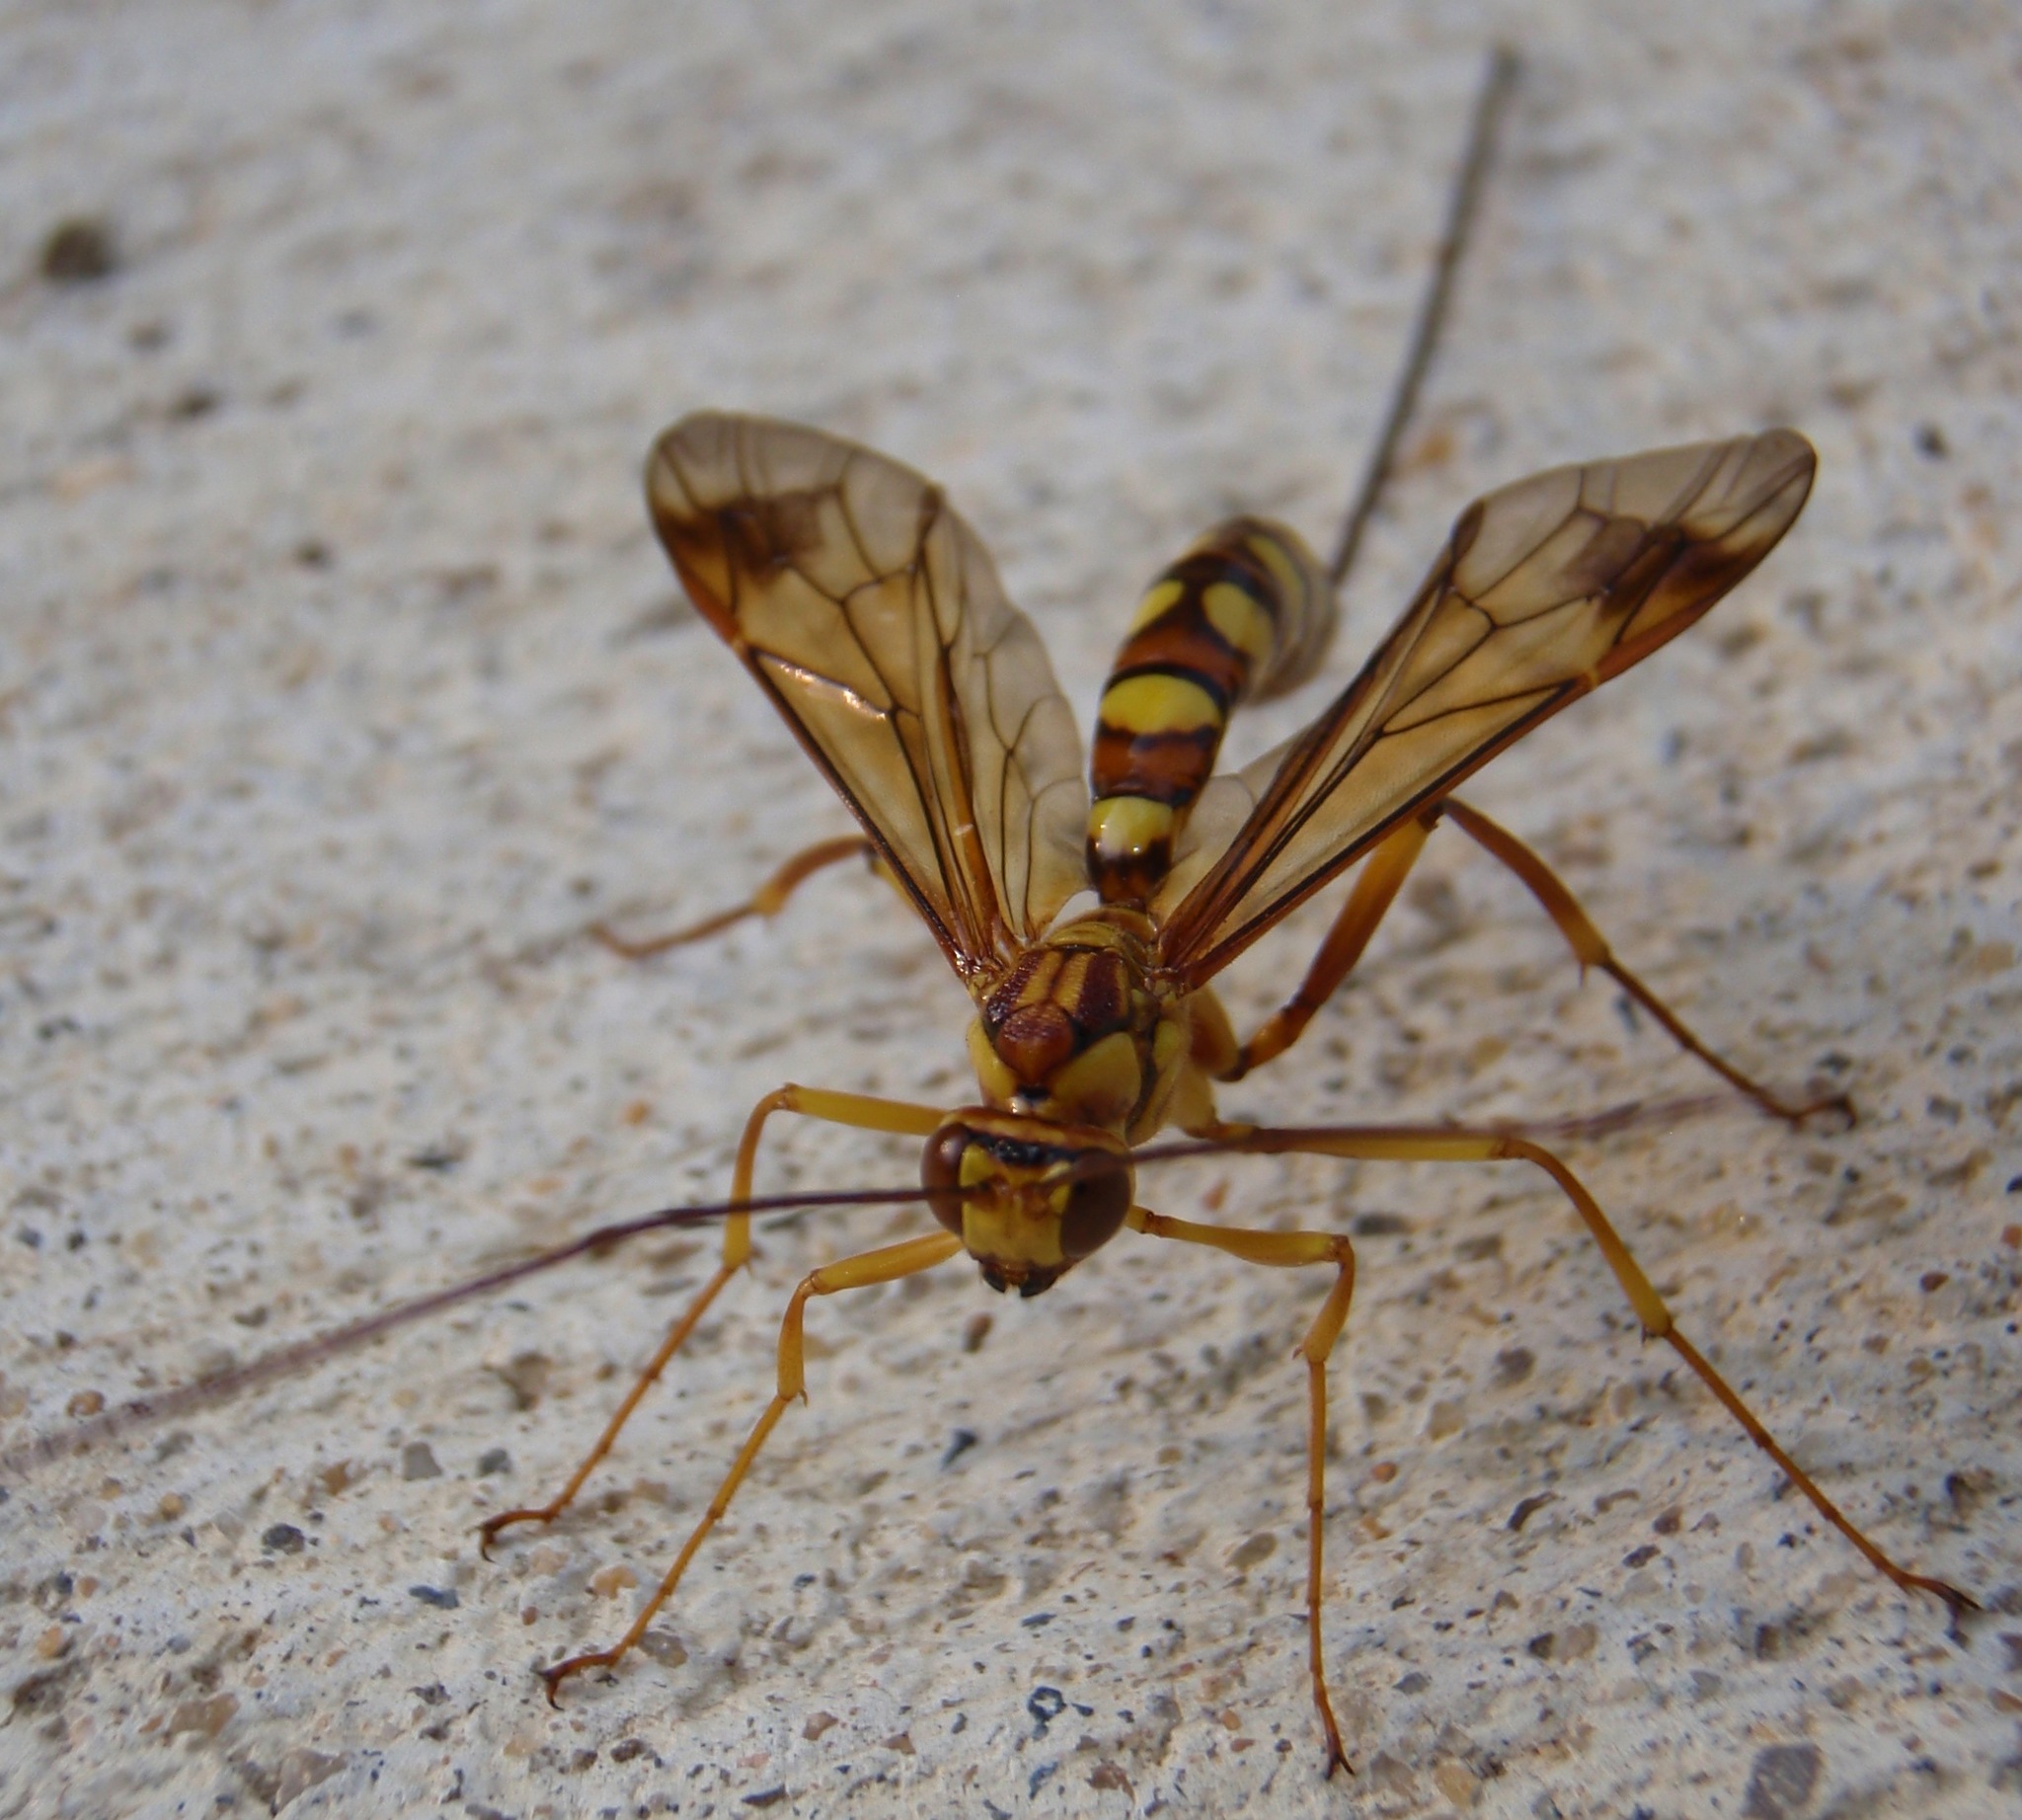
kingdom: Animalia
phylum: Arthropoda
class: Insecta
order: Hymenoptera
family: Ichneumonidae
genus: Megarhyssa
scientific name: Megarhyssa greenei
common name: Greene's giant ichneumonid wasp
